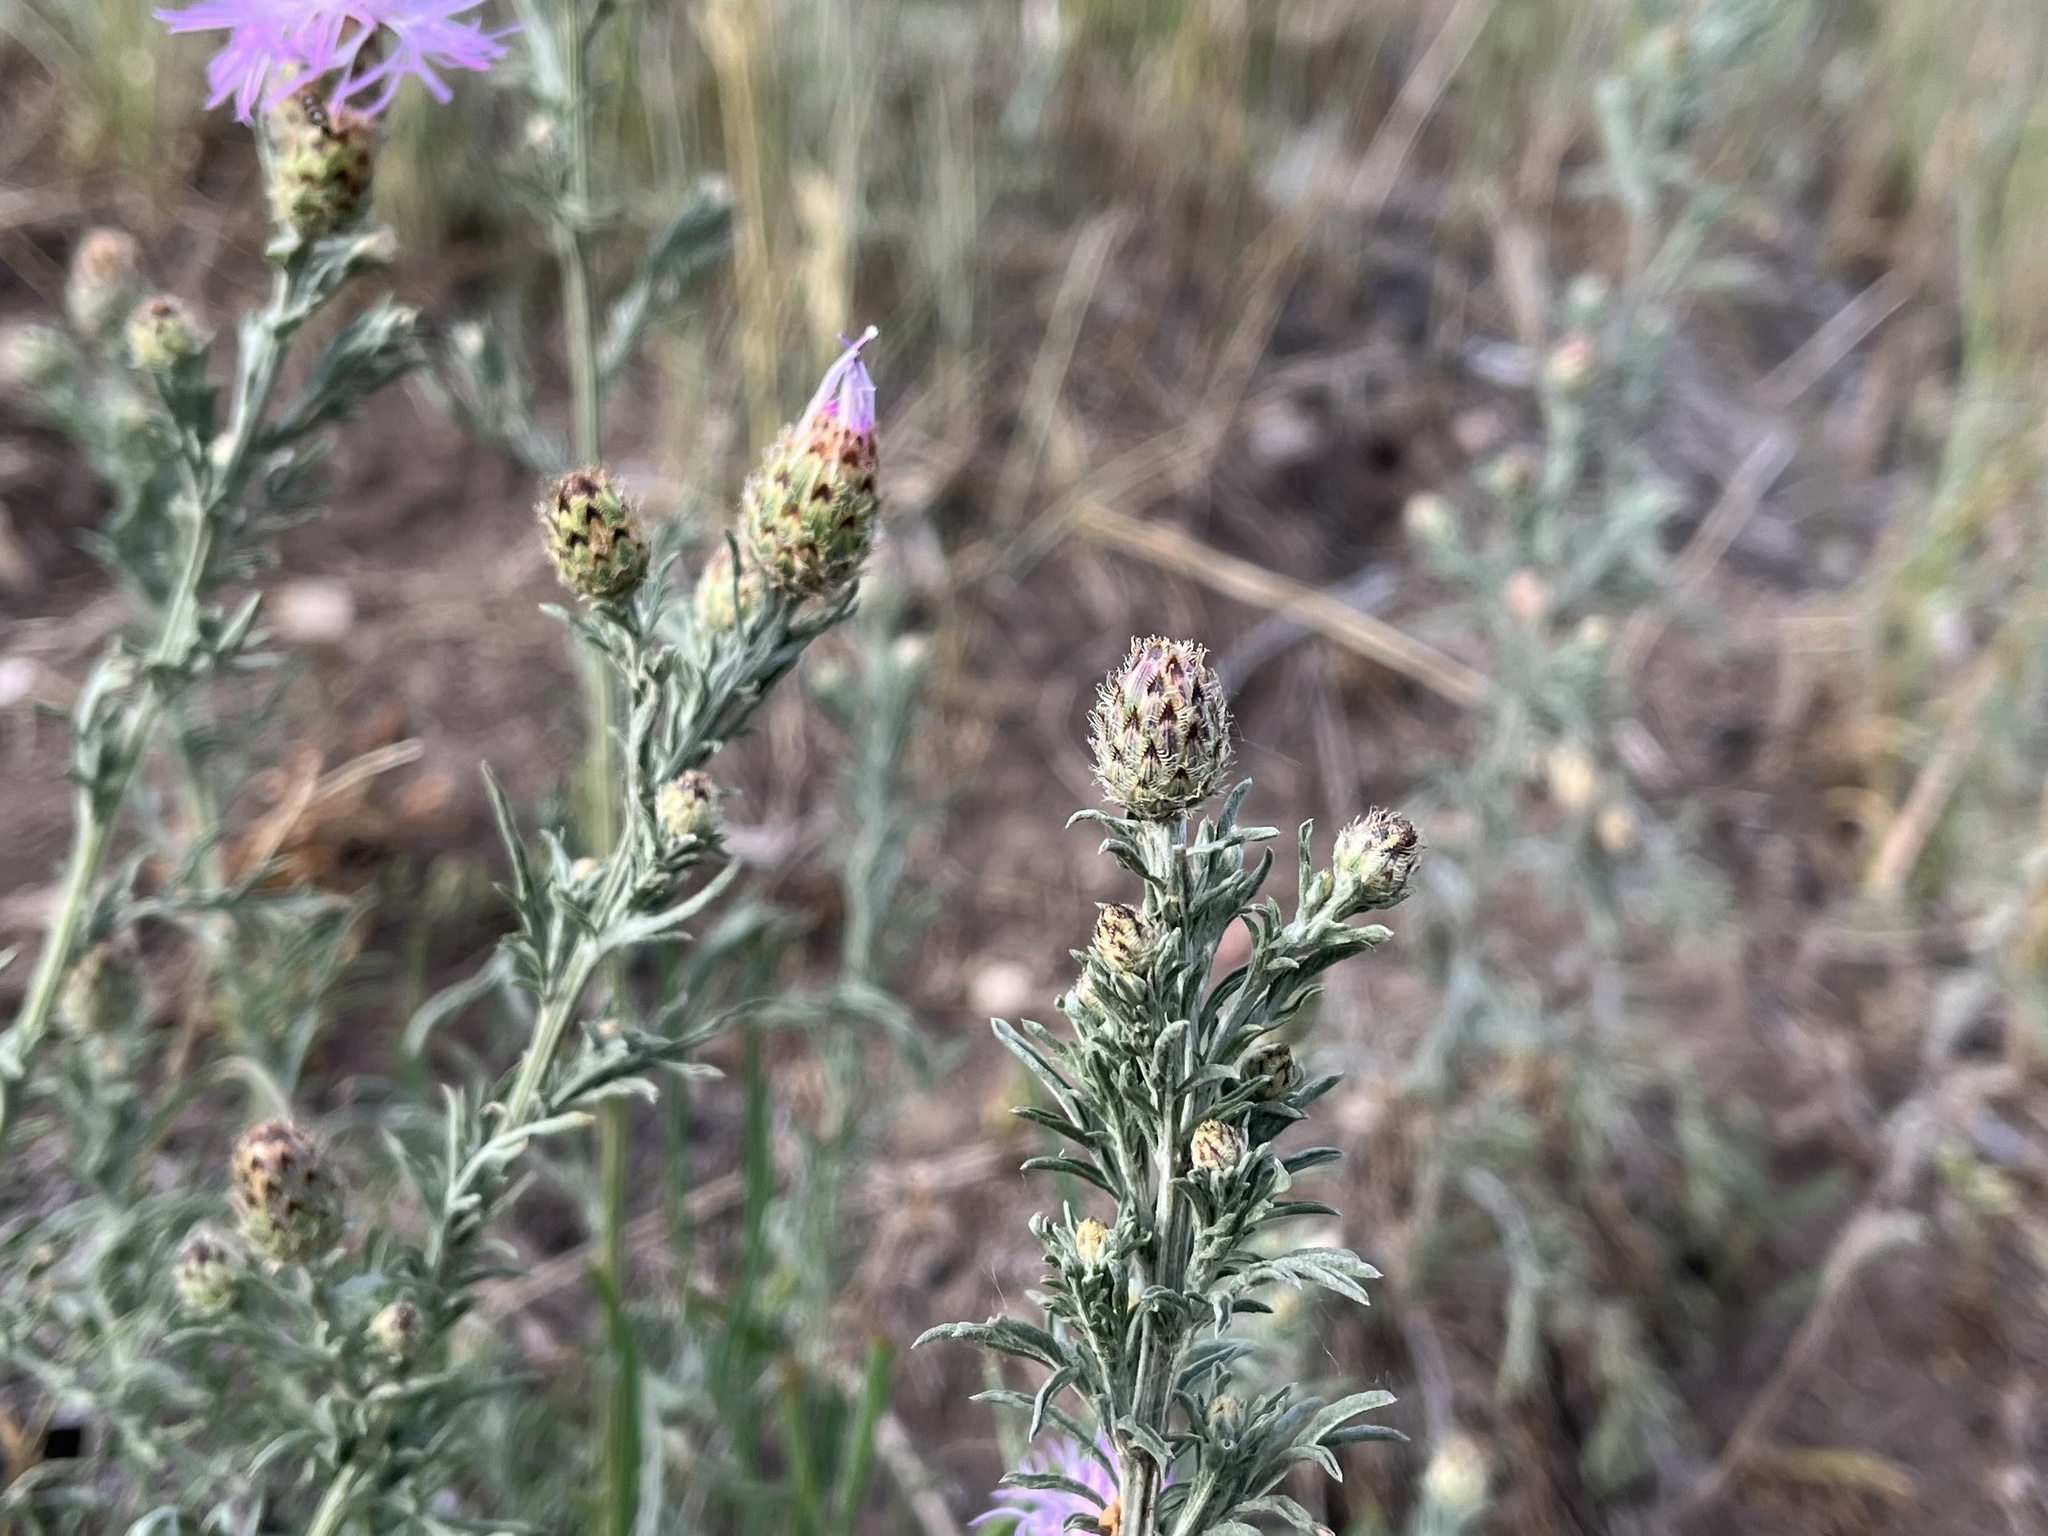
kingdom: Plantae
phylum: Tracheophyta
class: Magnoliopsida
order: Asterales
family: Asteraceae
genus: Centaurea
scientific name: Centaurea stoebe
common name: Spotted knapweed
